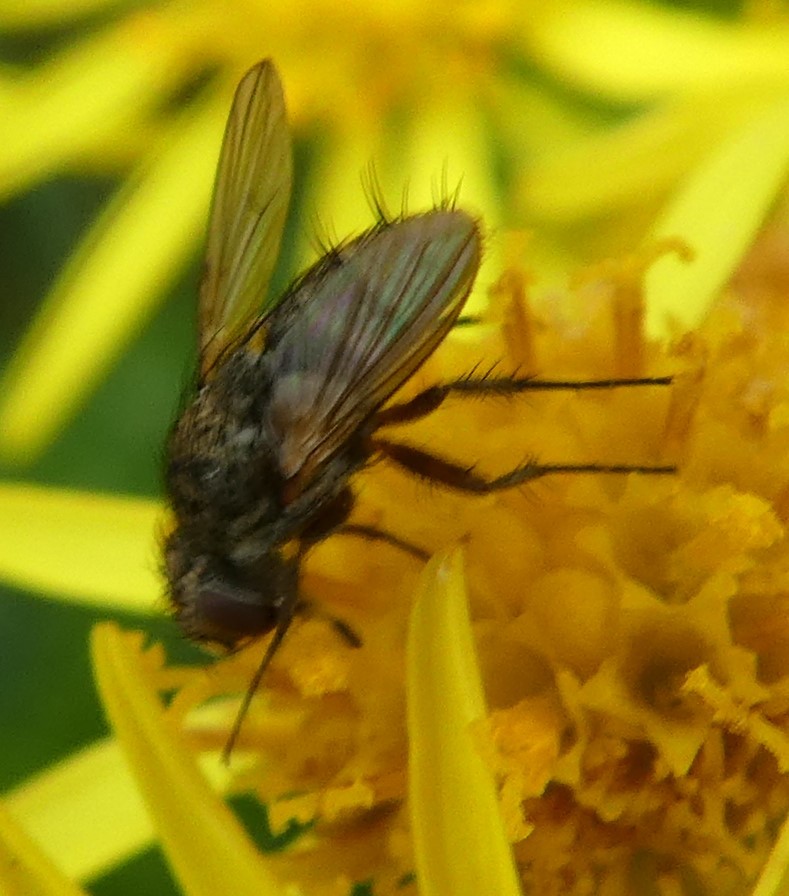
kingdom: Animalia
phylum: Arthropoda
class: Insecta
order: Diptera
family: Tachinidae
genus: Siphona
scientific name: Siphona
